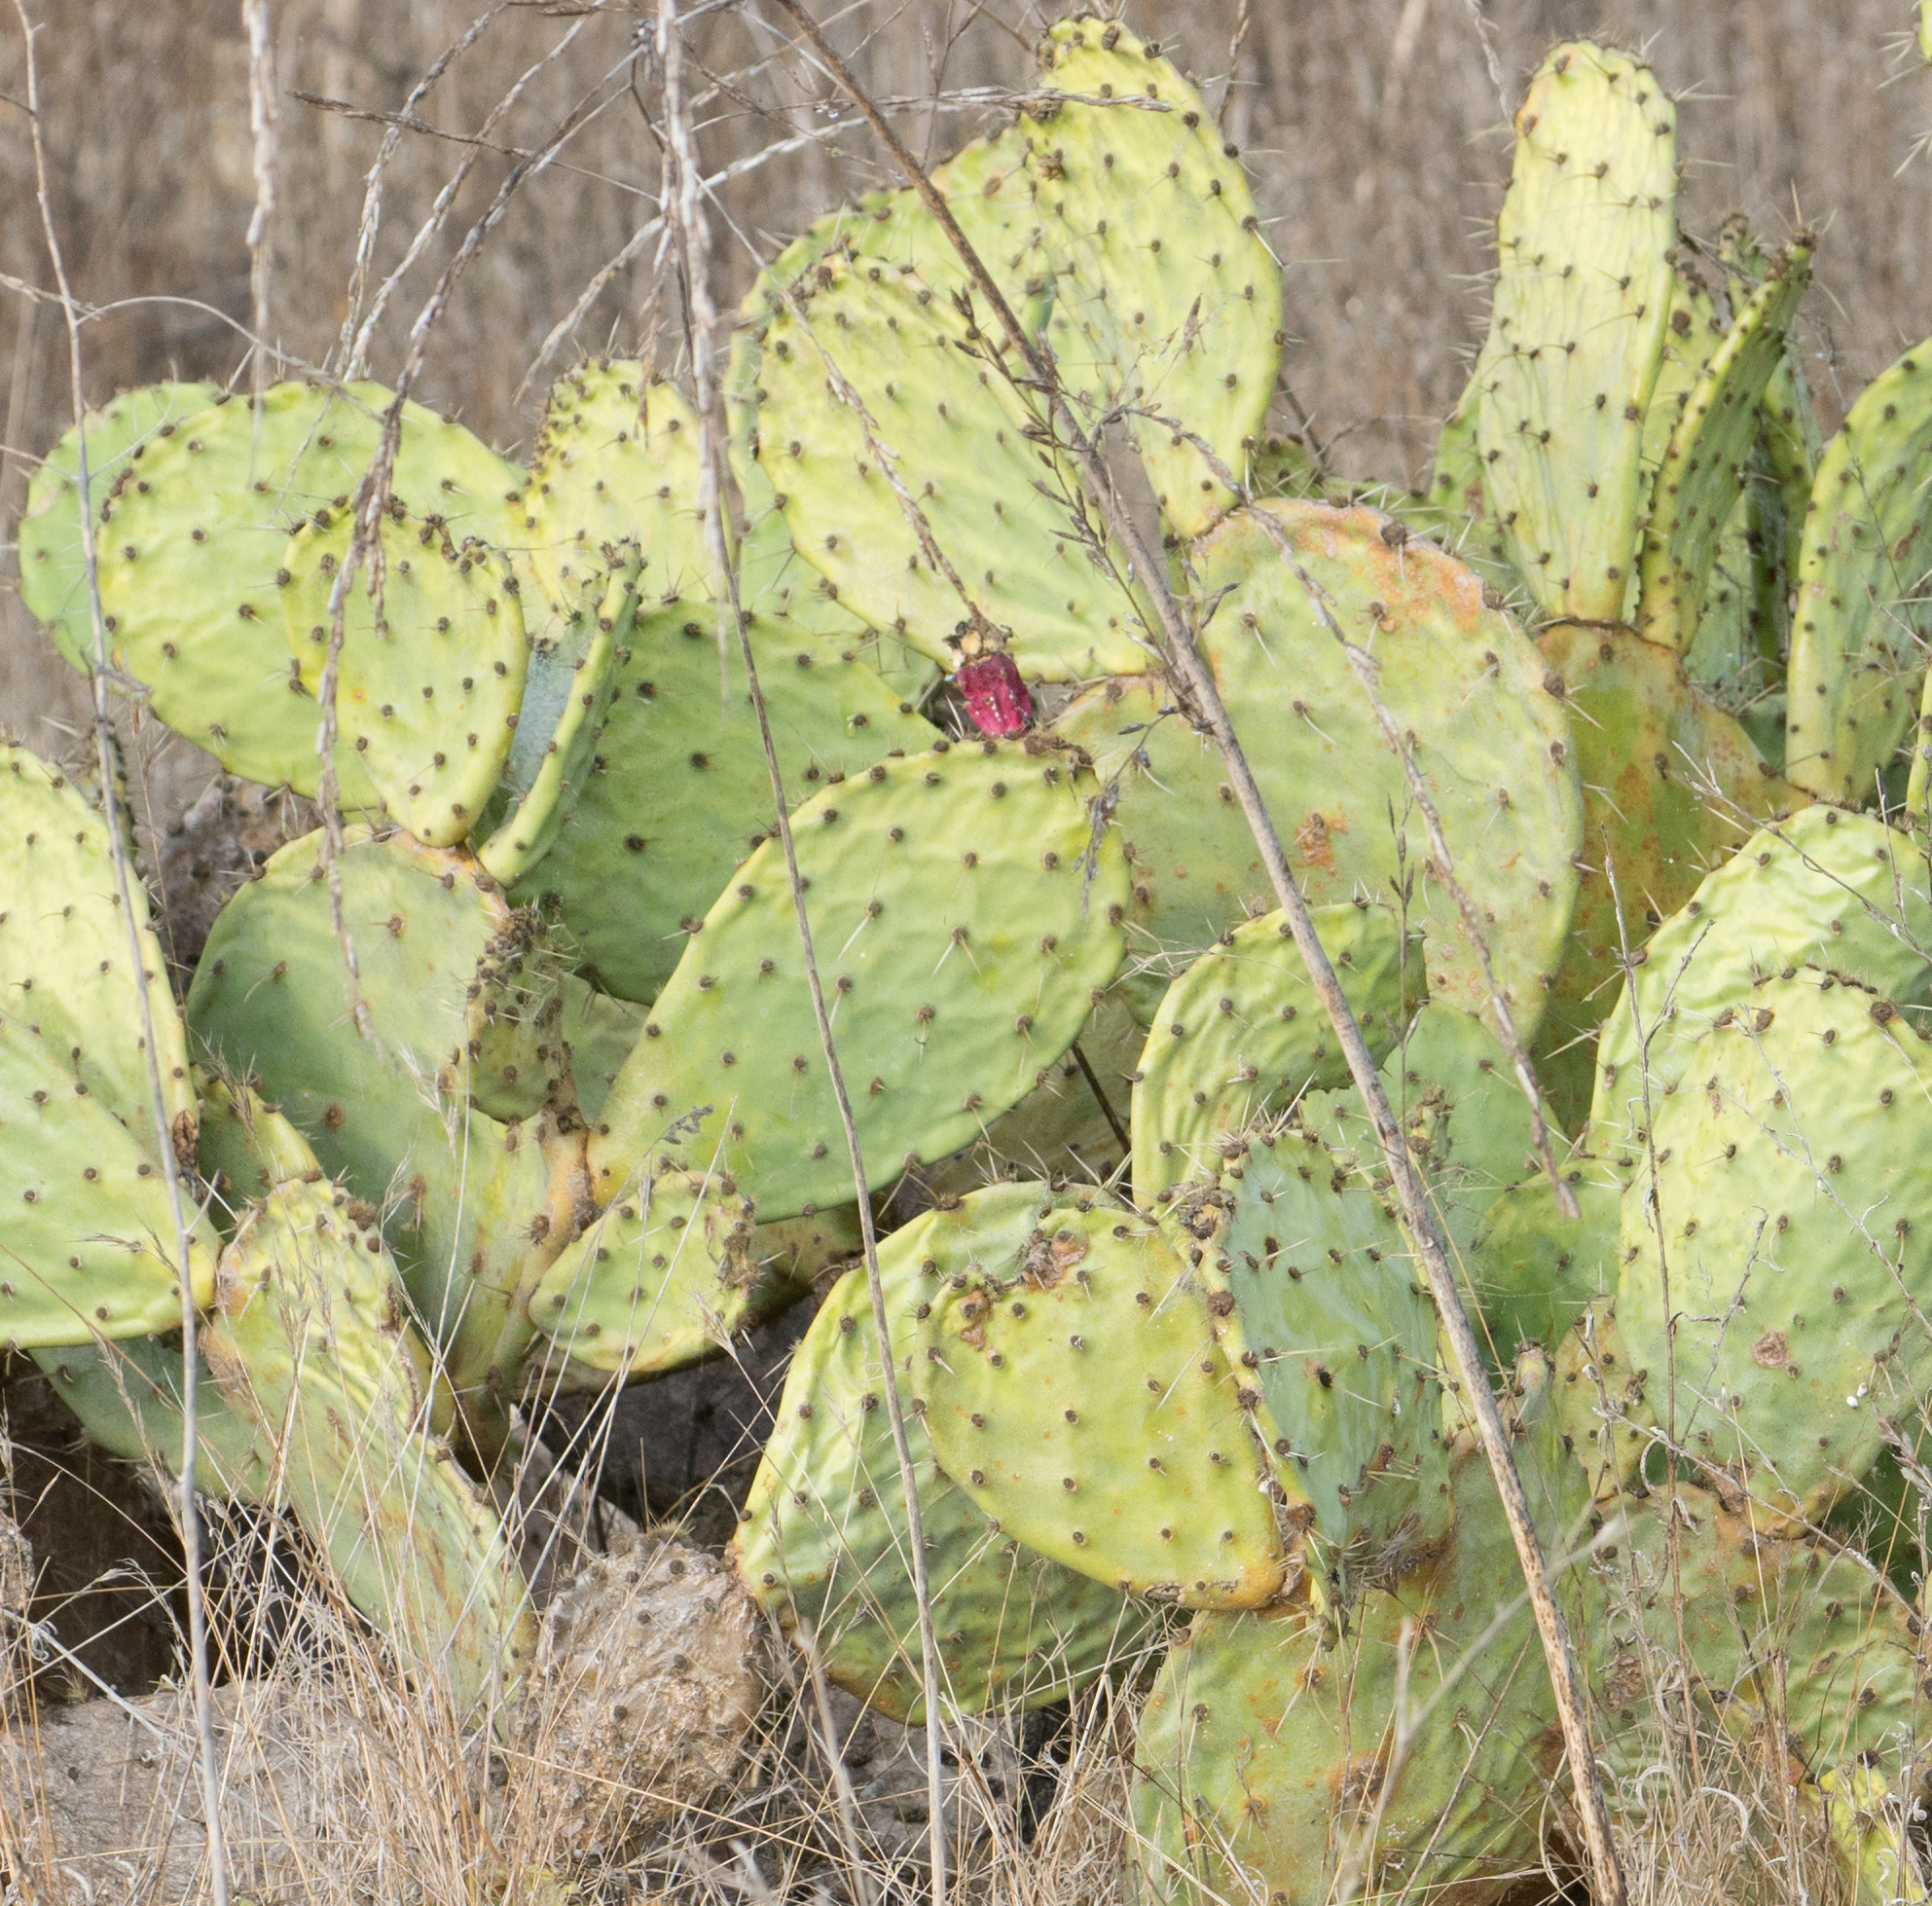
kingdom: Plantae
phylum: Tracheophyta
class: Magnoliopsida
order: Caryophyllales
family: Cactaceae
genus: Opuntia
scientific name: Opuntia littoralis
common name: Coastal prickly-pear
